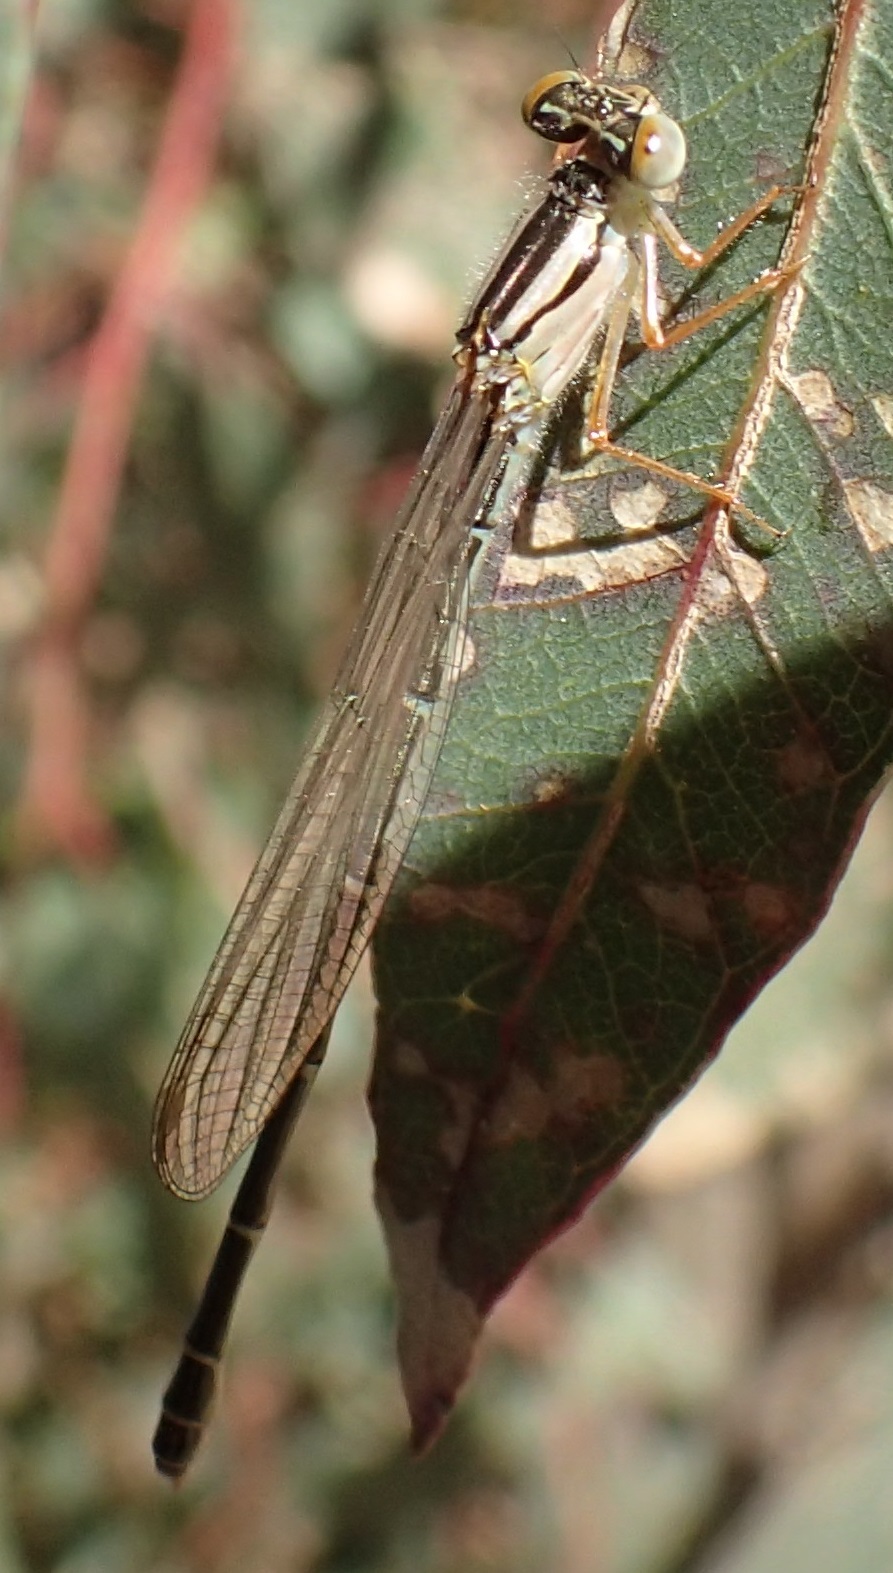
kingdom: Animalia
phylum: Arthropoda
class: Insecta
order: Odonata
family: Coenagrionidae
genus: Xanthagrion
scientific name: Xanthagrion erythroneurum
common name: Red and blue damsel
